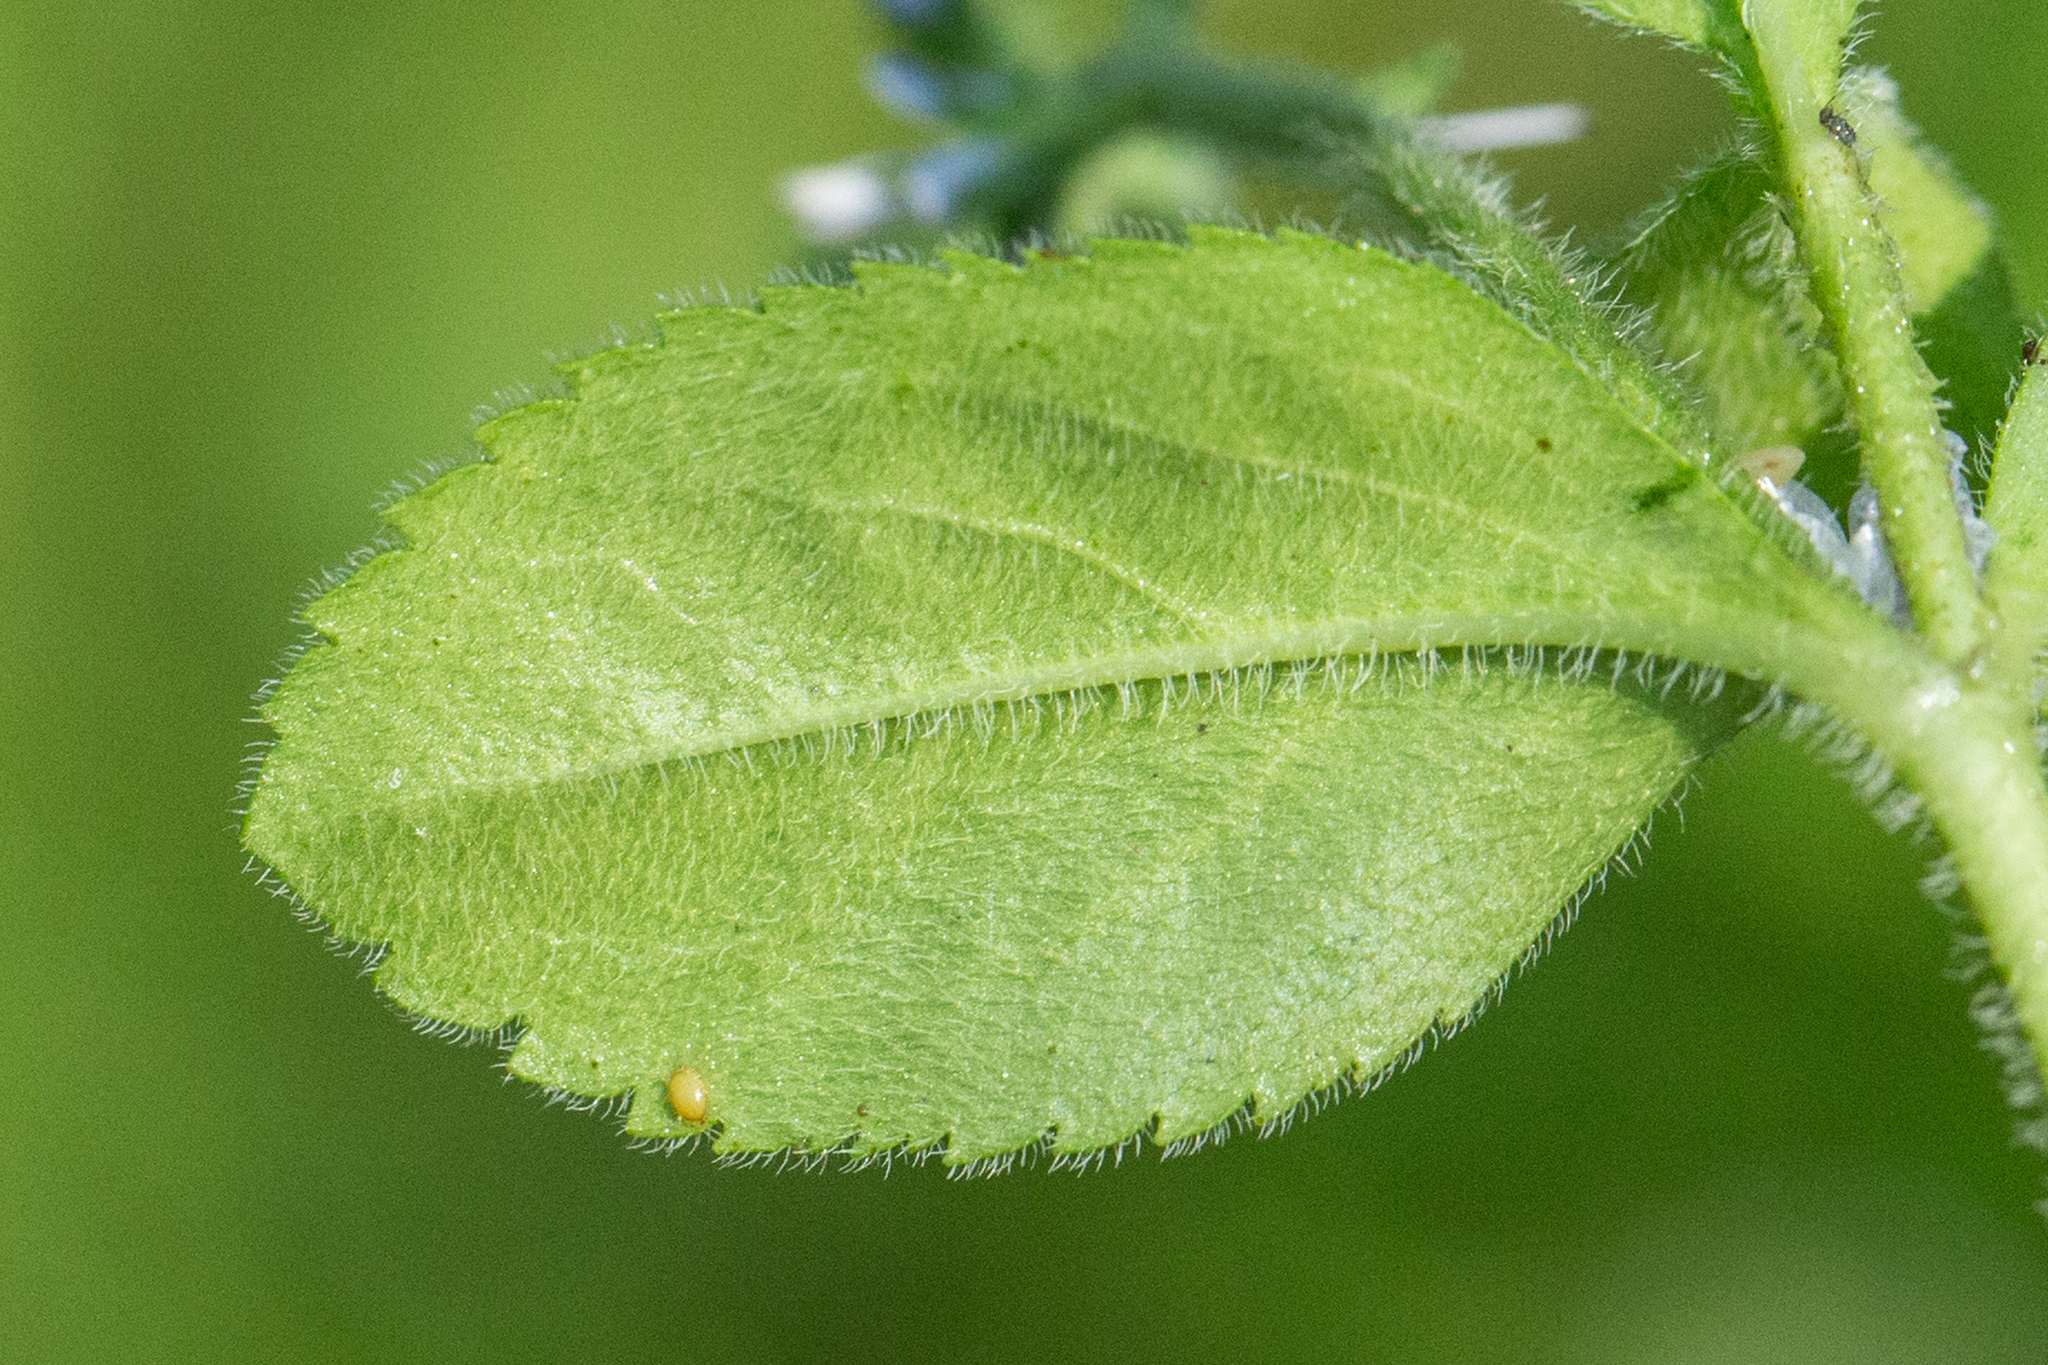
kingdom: Plantae
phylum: Tracheophyta
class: Magnoliopsida
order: Lamiales
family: Plantaginaceae
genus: Veronica
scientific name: Veronica officinalis
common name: Common speedwell
